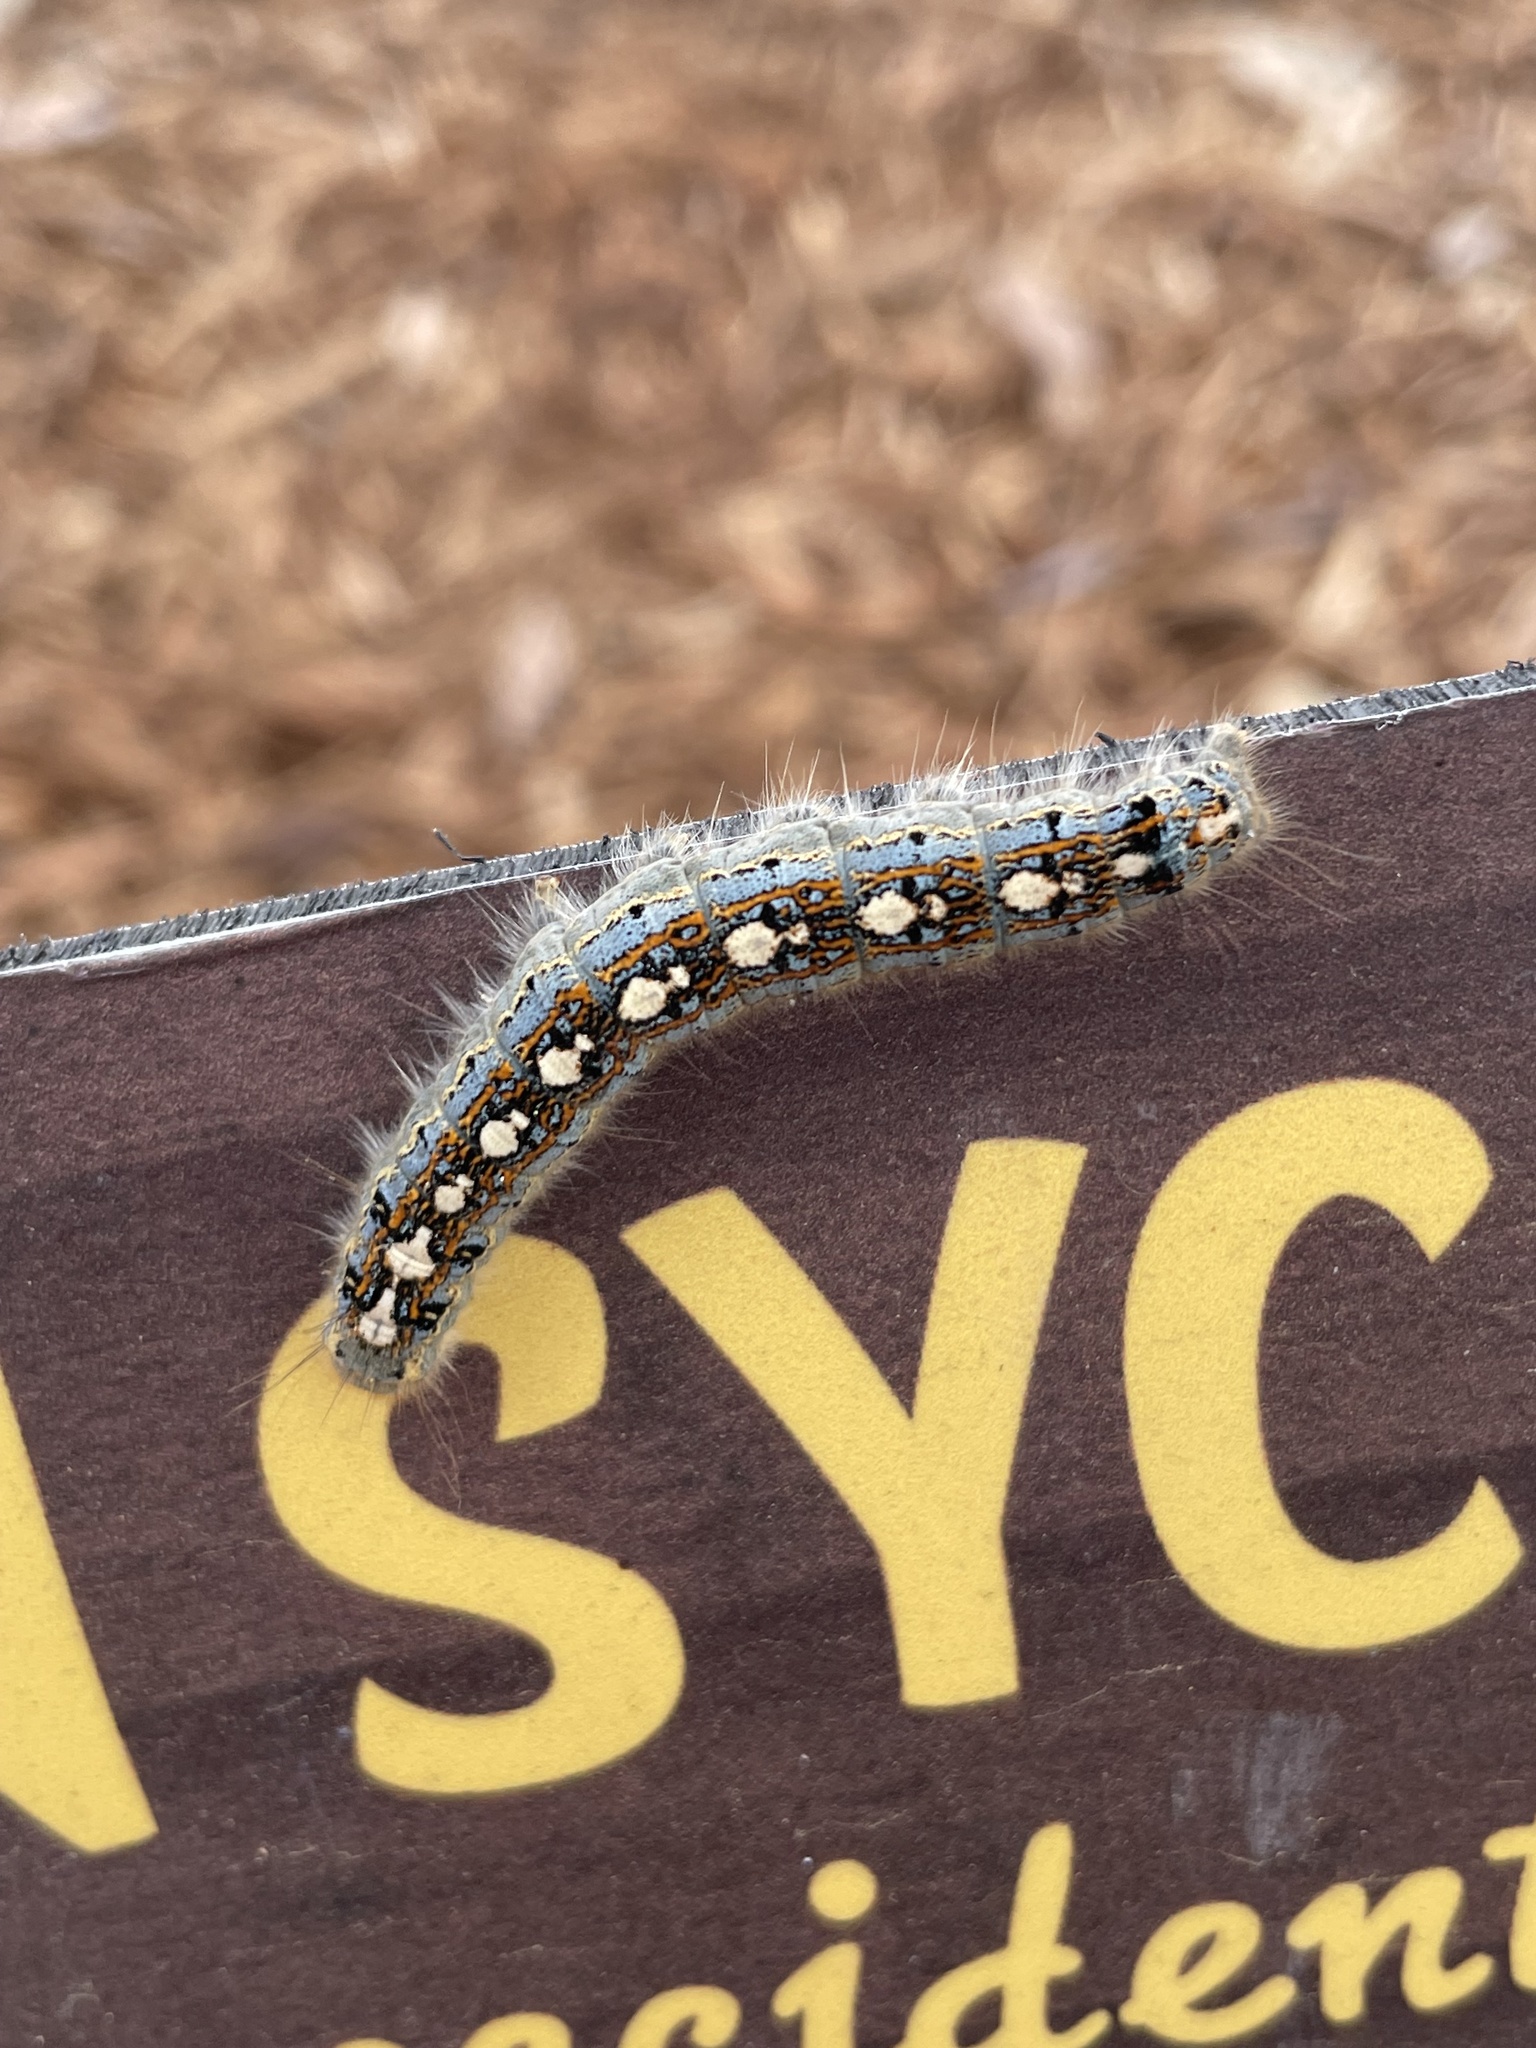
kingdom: Animalia
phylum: Arthropoda
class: Insecta
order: Lepidoptera
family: Lasiocampidae
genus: Malacosoma
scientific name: Malacosoma disstria
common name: Forest tent caterpillar
